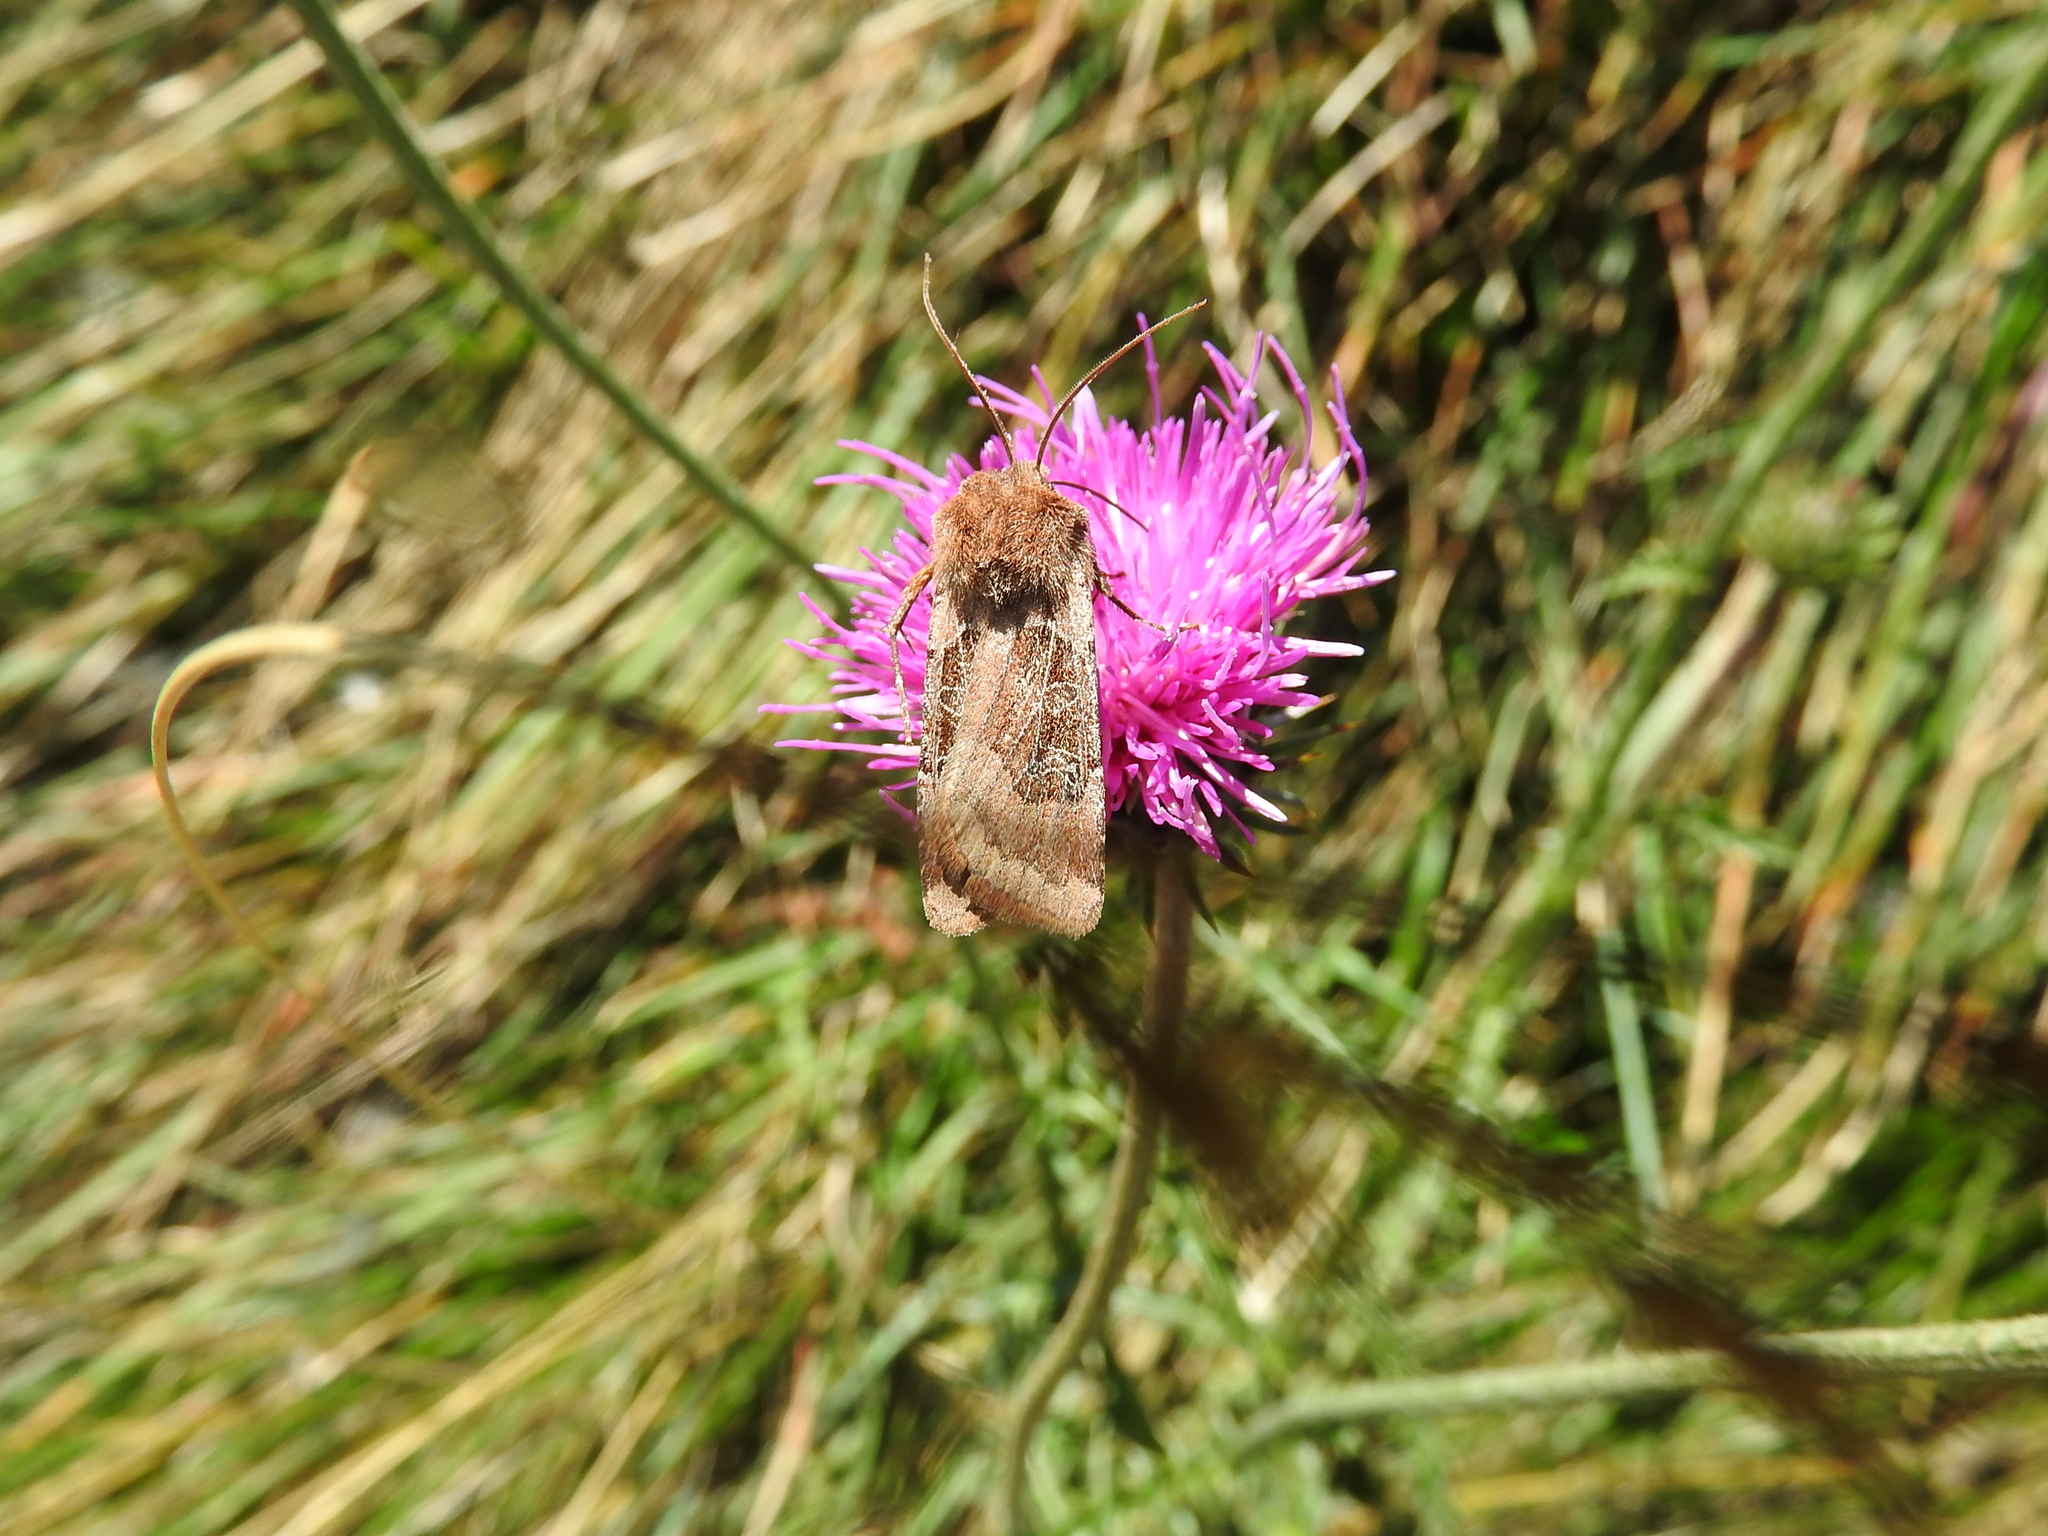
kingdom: Animalia
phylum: Arthropoda
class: Insecta
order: Lepidoptera
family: Noctuidae
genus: Chersotis
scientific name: Chersotis cuprea
